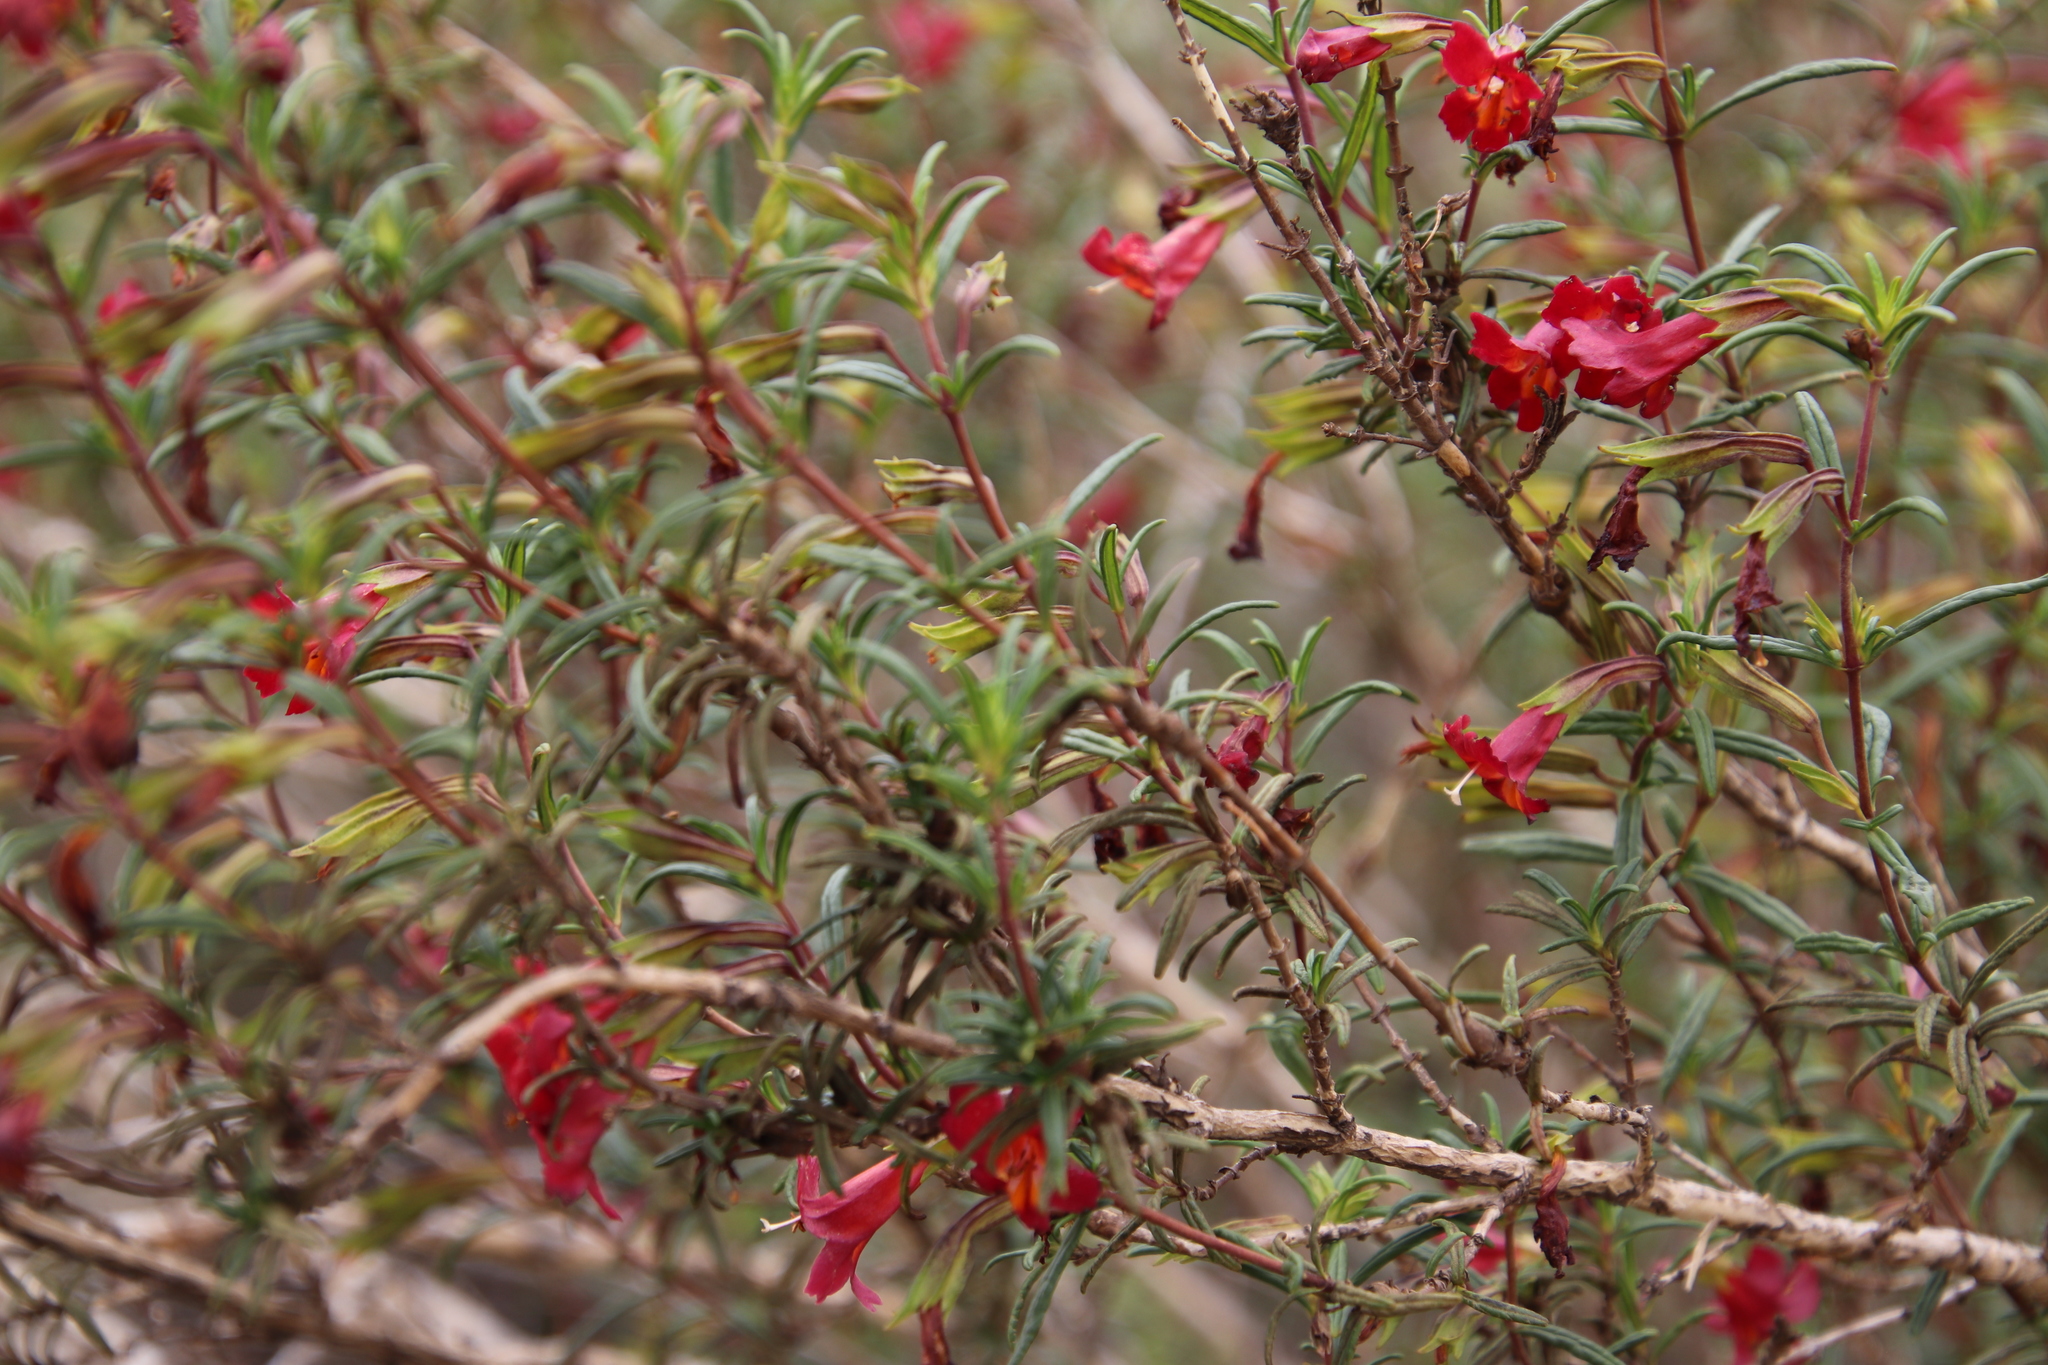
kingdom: Plantae
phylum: Tracheophyta
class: Magnoliopsida
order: Lamiales
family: Phrymaceae
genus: Diplacus
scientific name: Diplacus puniceus
